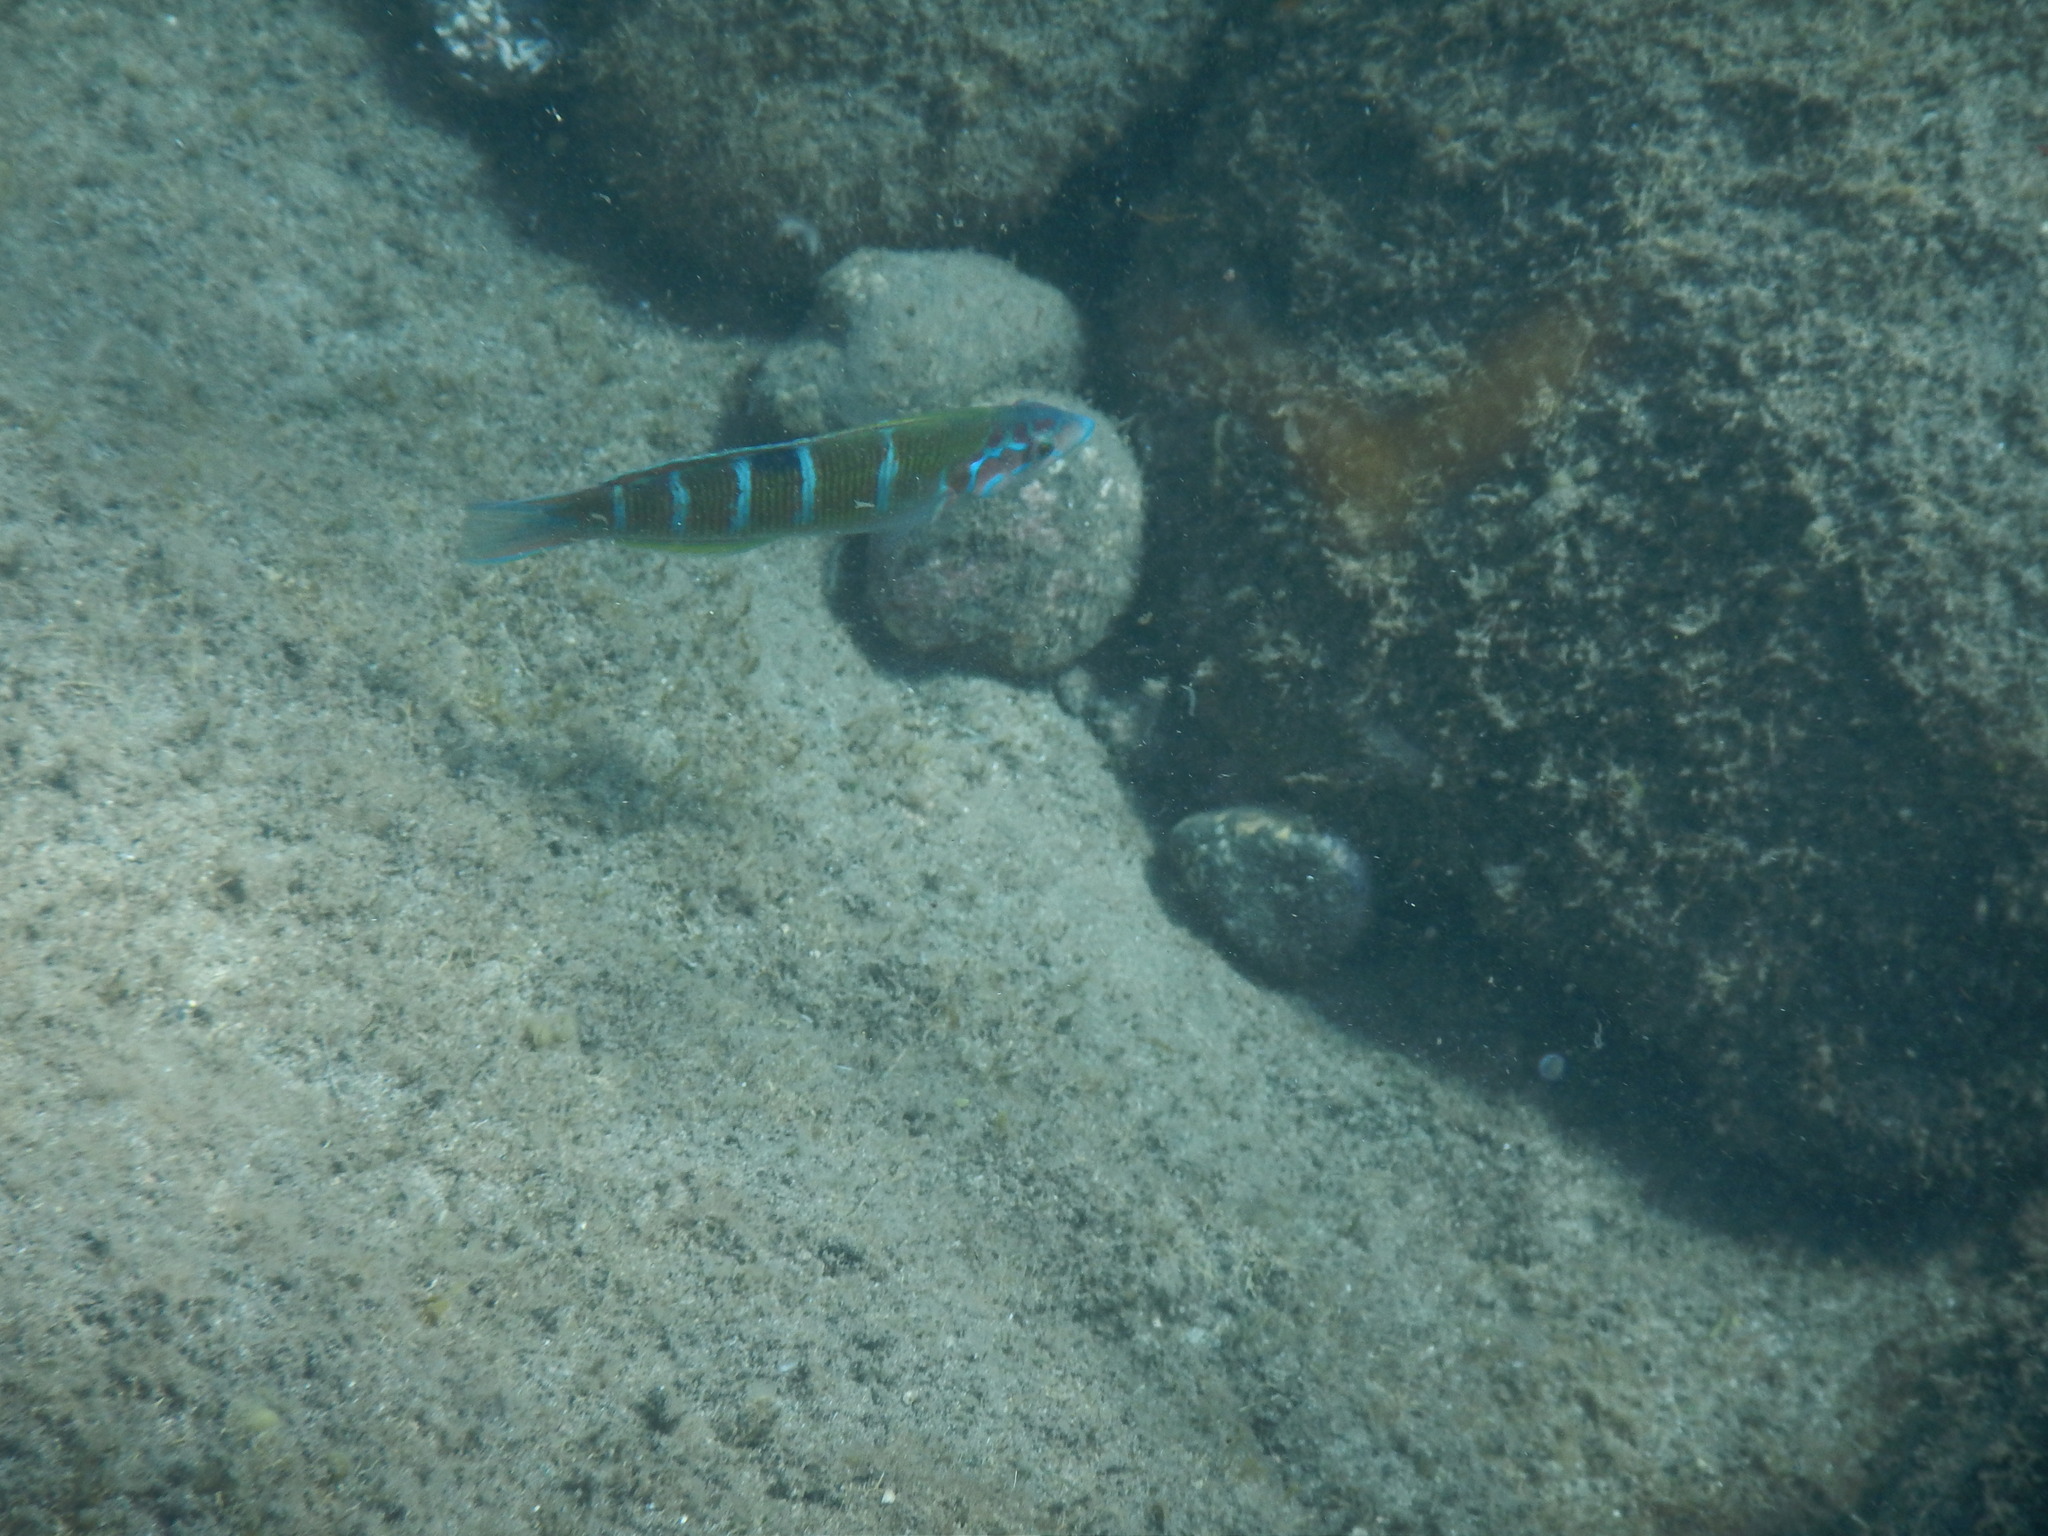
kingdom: Animalia
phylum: Chordata
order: Perciformes
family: Labridae
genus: Thalassoma
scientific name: Thalassoma pavo
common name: Ornate wrasse
